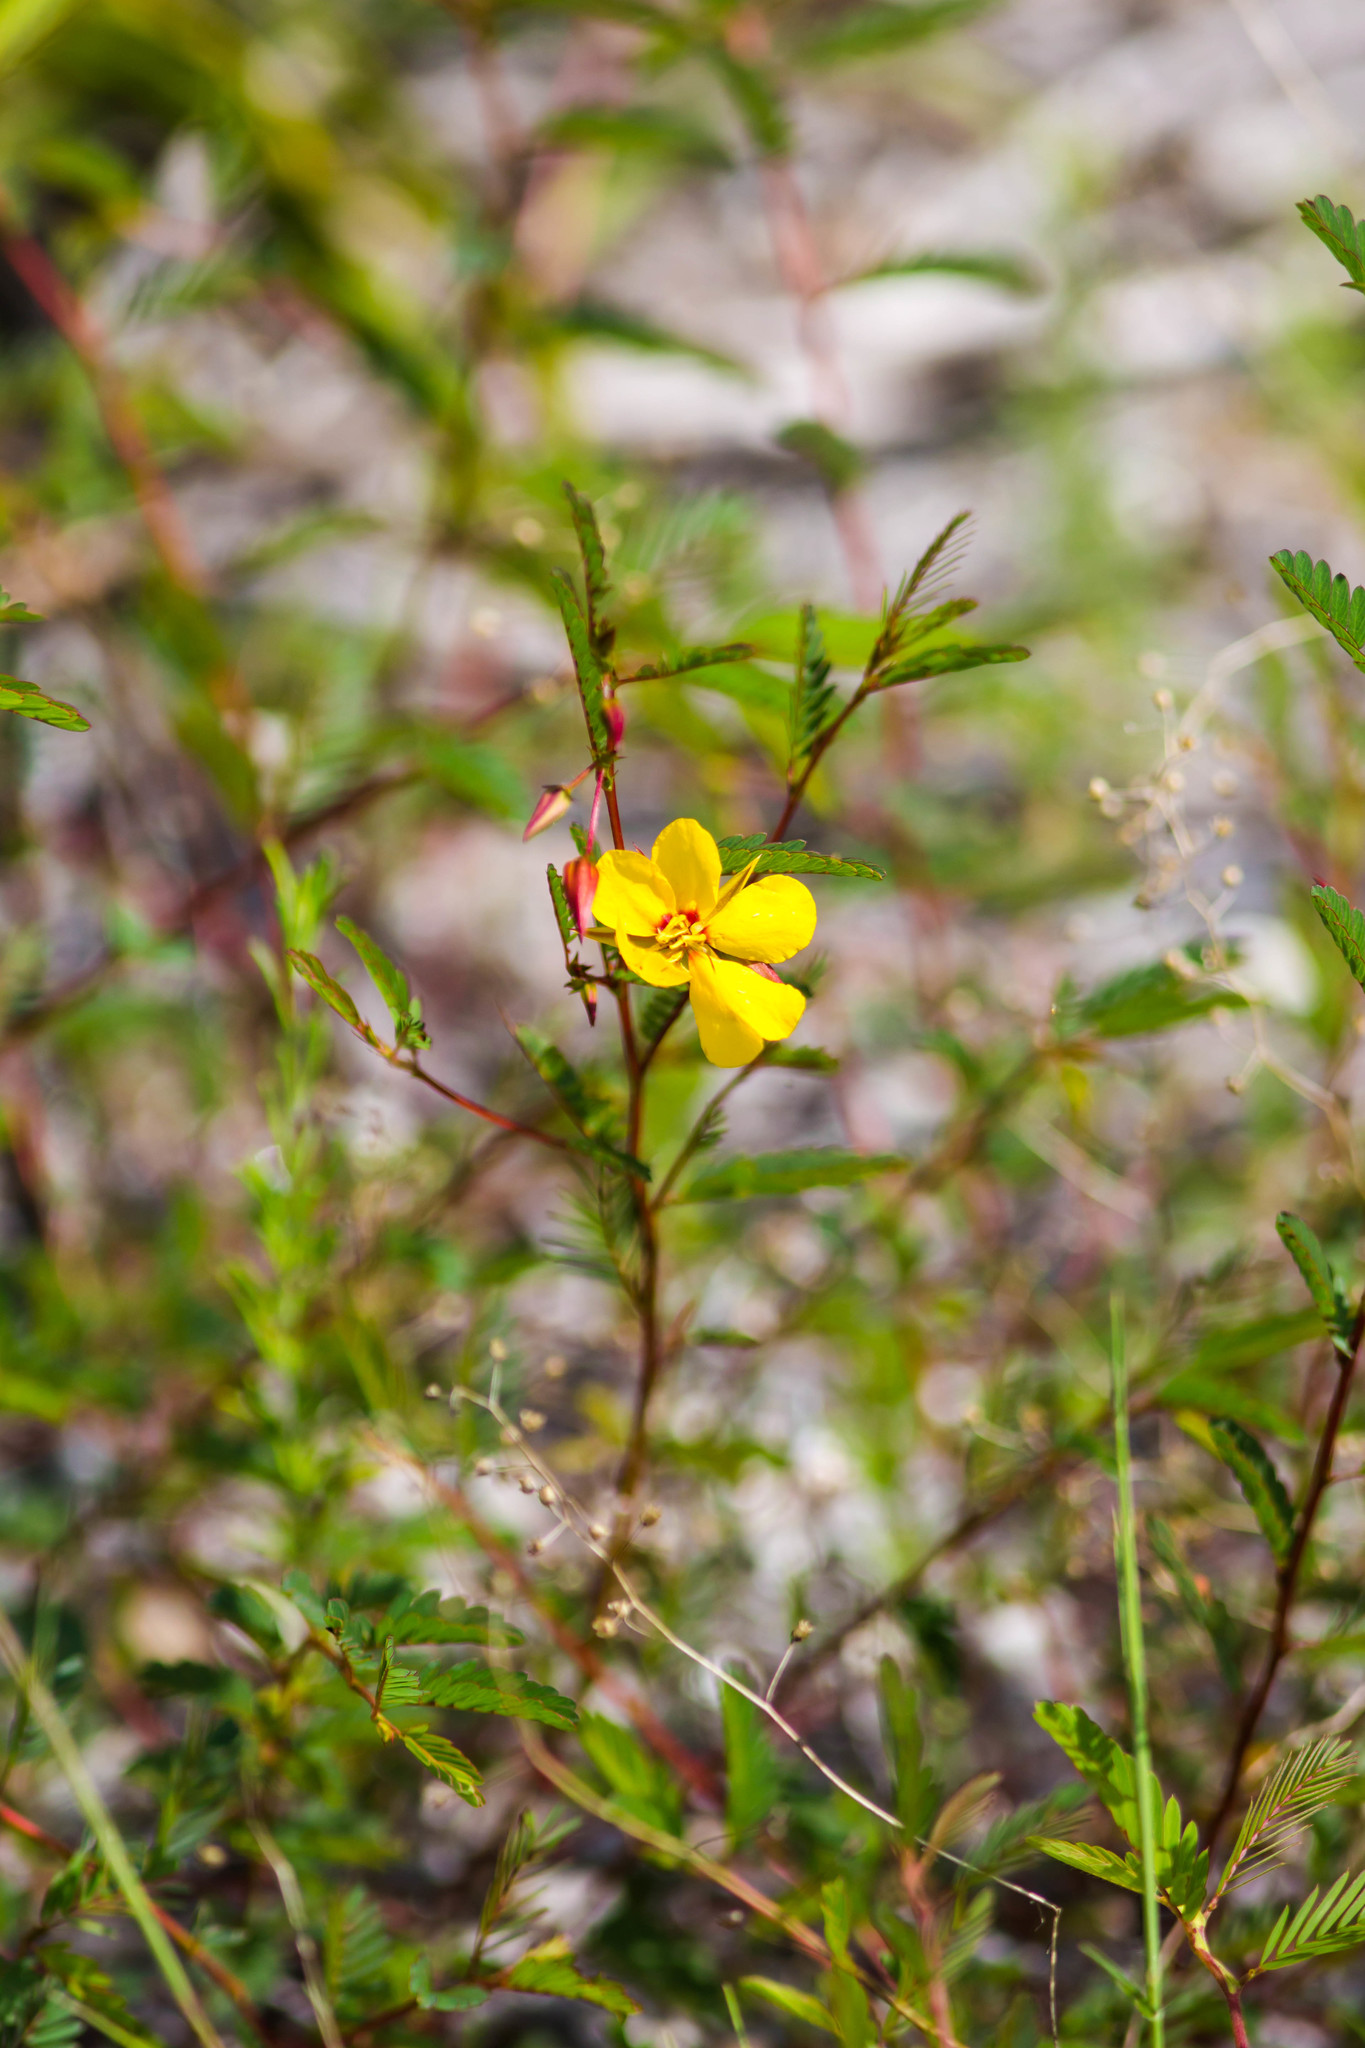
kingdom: Plantae
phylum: Tracheophyta
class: Magnoliopsida
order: Fabales
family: Fabaceae
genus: Chamaecrista
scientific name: Chamaecrista fasciculata
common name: Golden cassia
